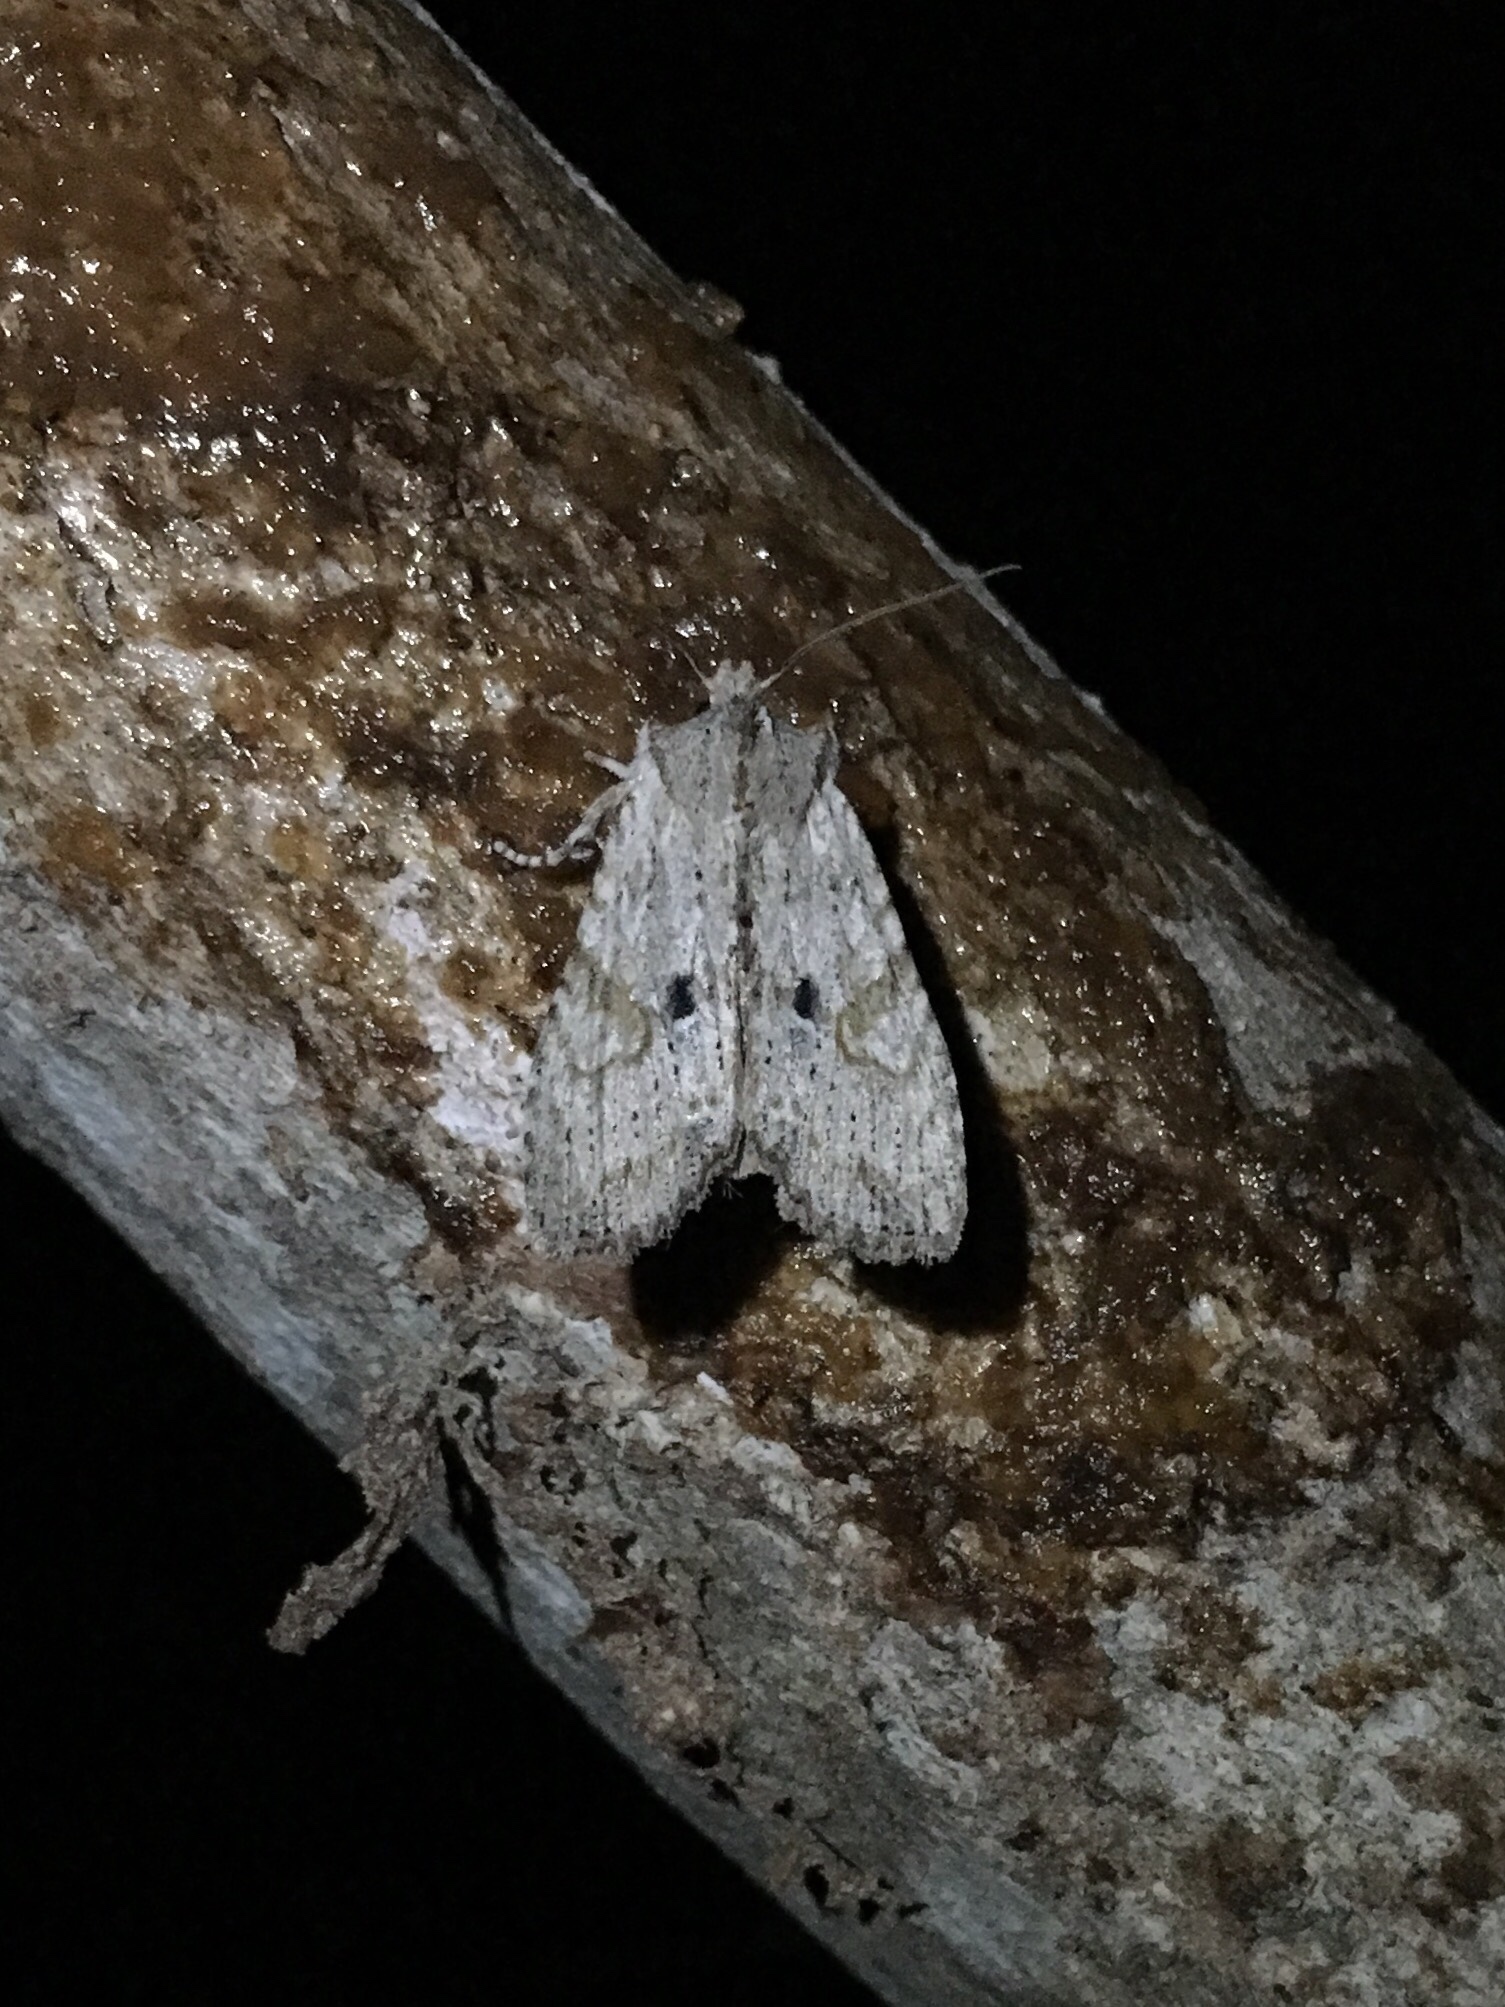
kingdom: Animalia
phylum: Arthropoda
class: Insecta
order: Lepidoptera
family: Noctuidae
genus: Lithophane
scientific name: Lithophane patefacta
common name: Dimorphic pinion moth
